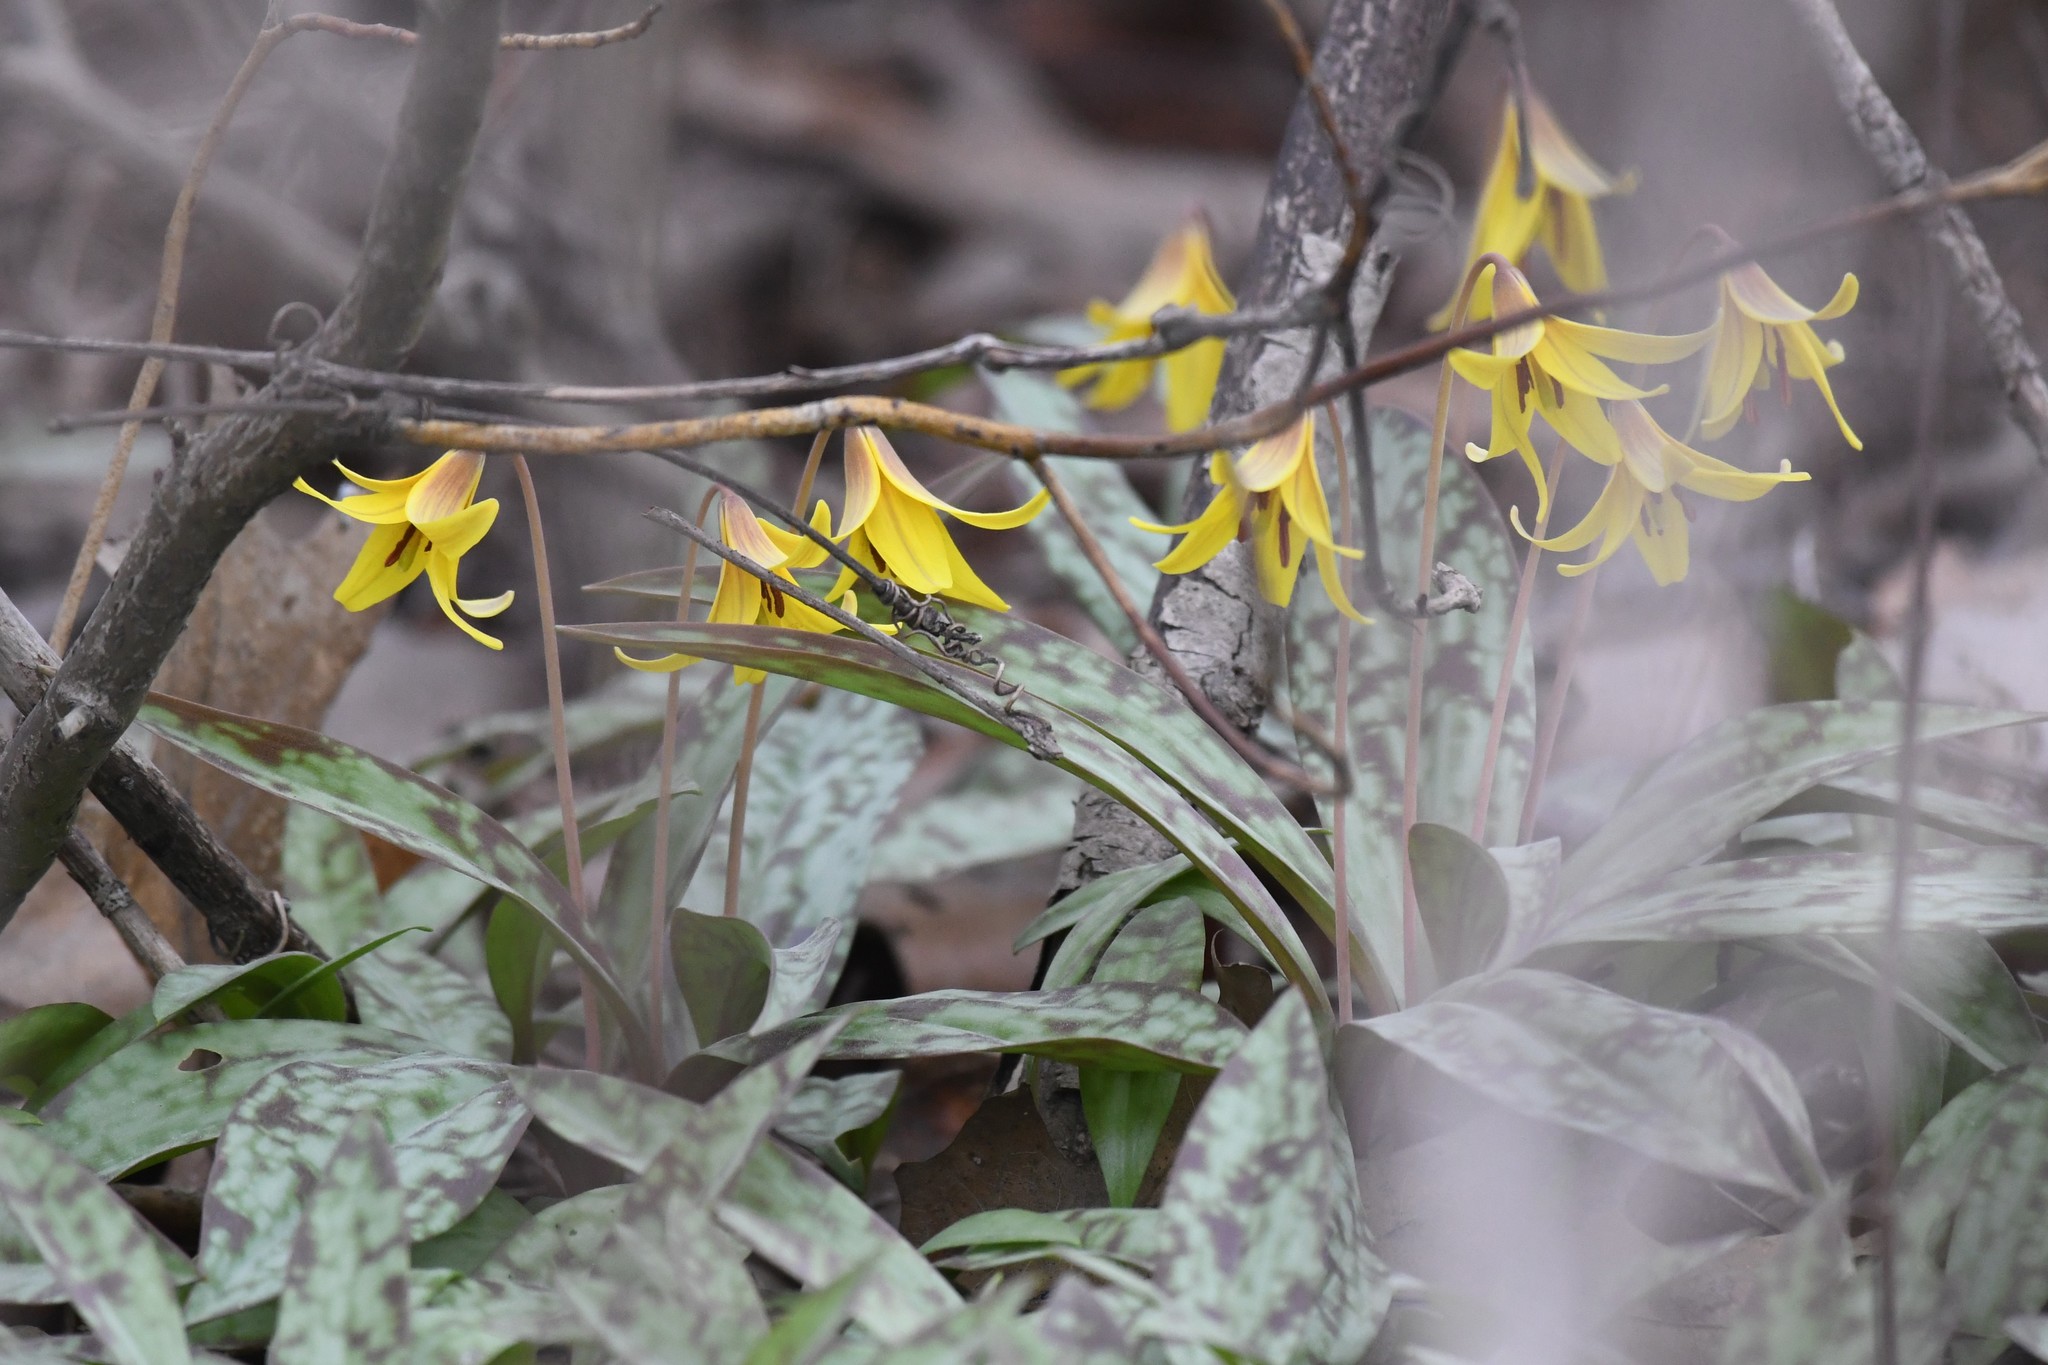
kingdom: Plantae
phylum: Tracheophyta
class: Liliopsida
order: Liliales
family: Liliaceae
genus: Erythronium
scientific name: Erythronium americanum
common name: Yellow adder's-tongue
